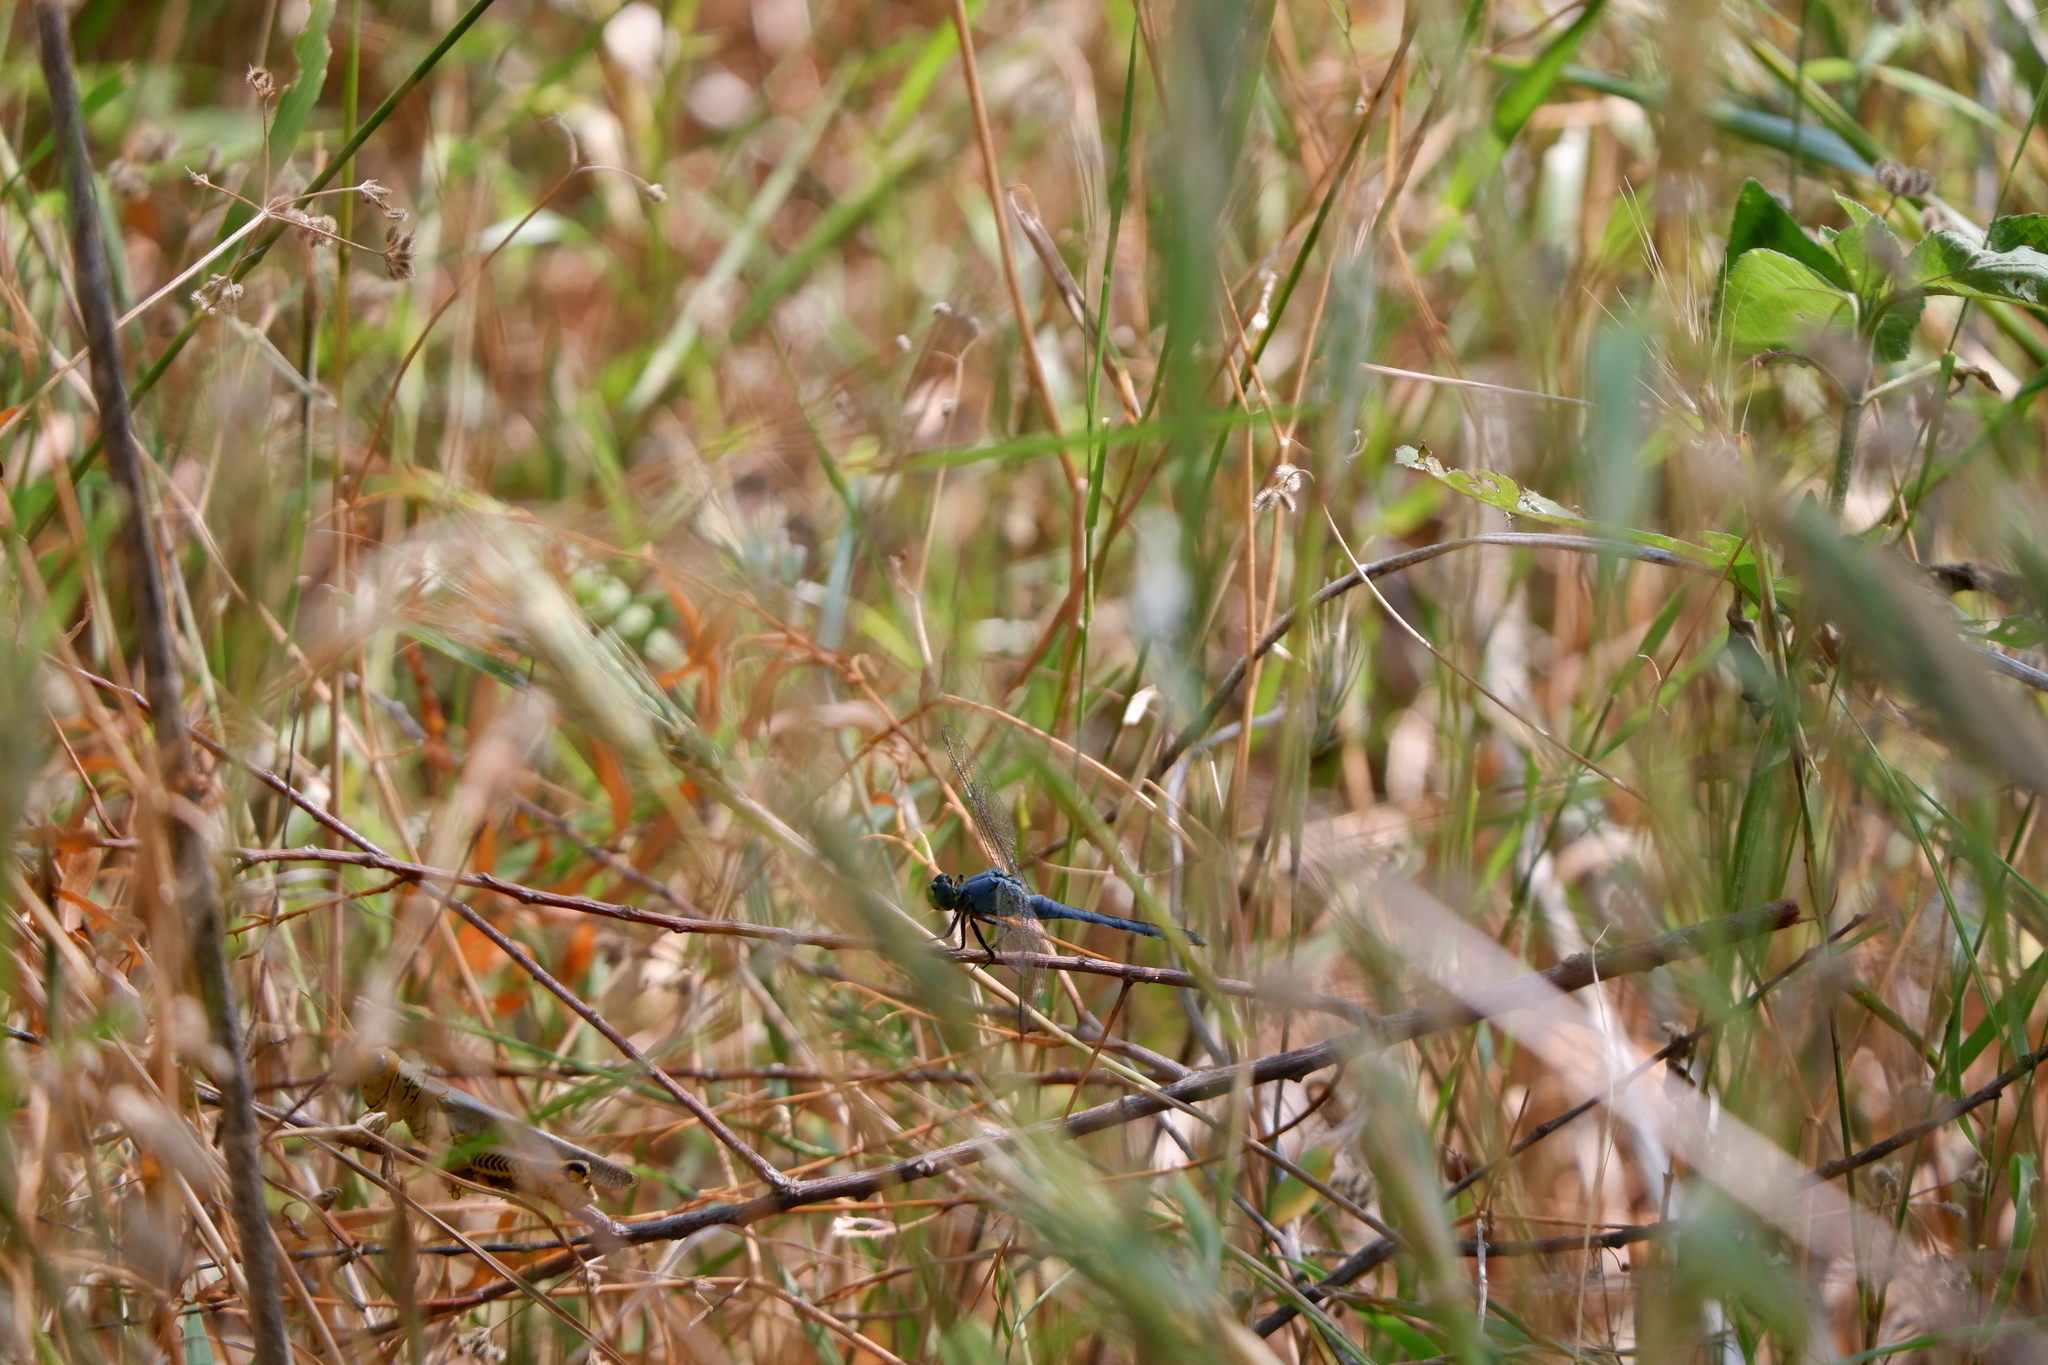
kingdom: Animalia
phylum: Arthropoda
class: Insecta
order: Odonata
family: Libellulidae
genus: Erythemis
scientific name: Erythemis simplicicollis
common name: Eastern pondhawk
